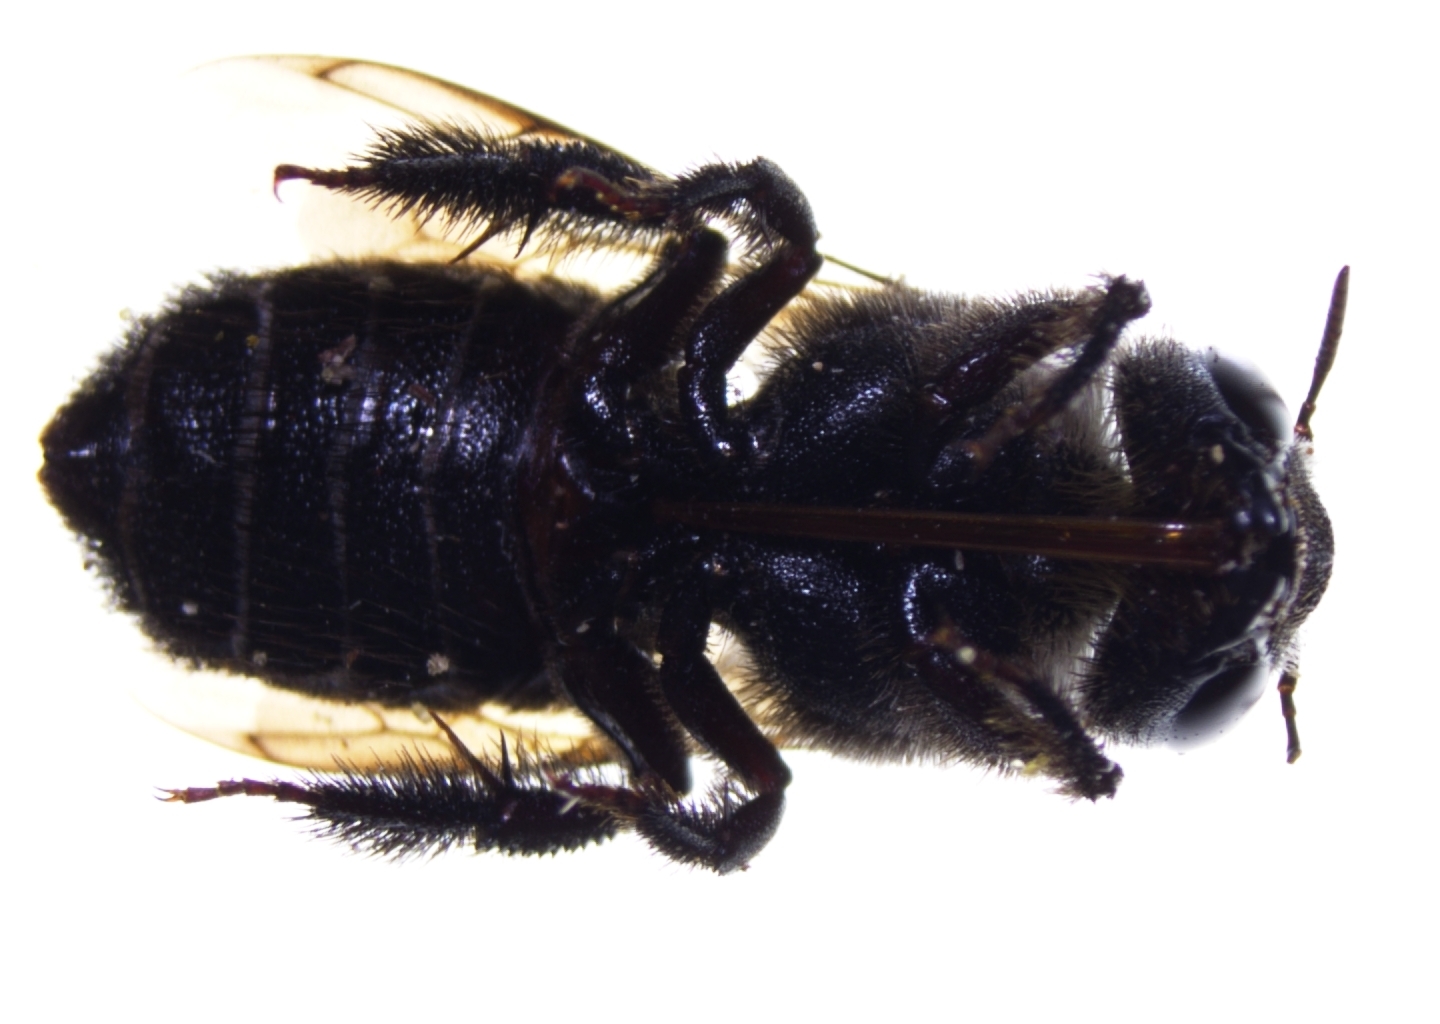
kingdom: Animalia
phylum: Arthropoda
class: Insecta
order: Hymenoptera
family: Megachilidae
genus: Lithurgus
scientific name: Lithurgus scabrosus
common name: Wood-nesting bee
